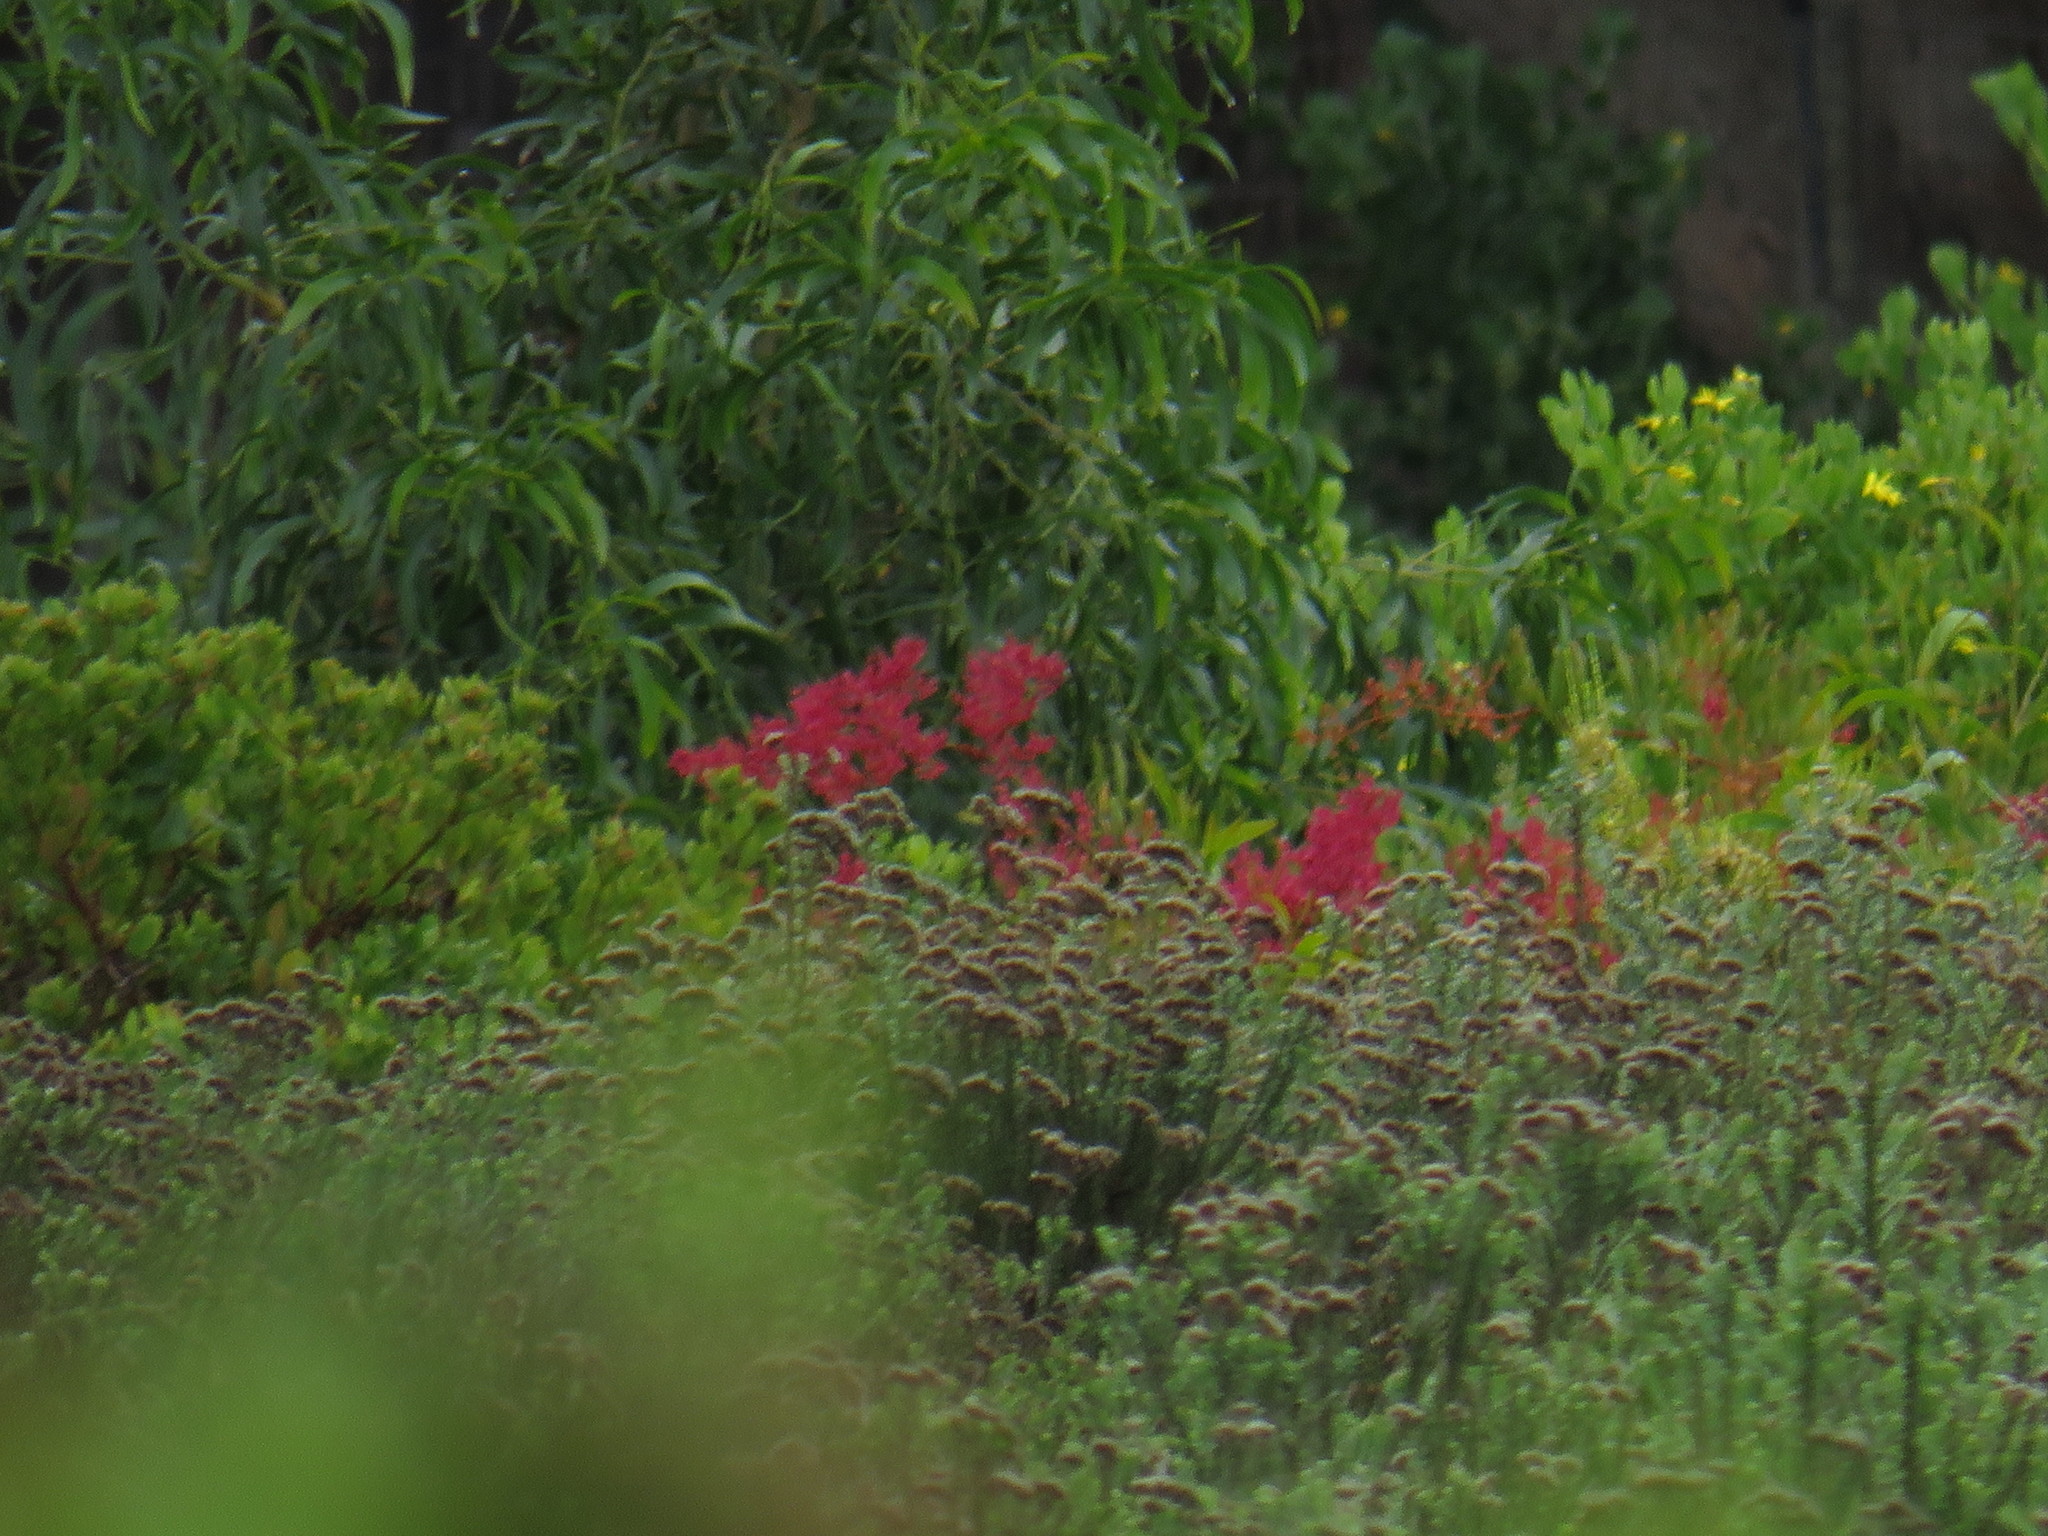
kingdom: Plantae
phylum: Tracheophyta
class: Magnoliopsida
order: Caryophyllales
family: Polygonaceae
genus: Rumex
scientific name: Rumex usambarensis
